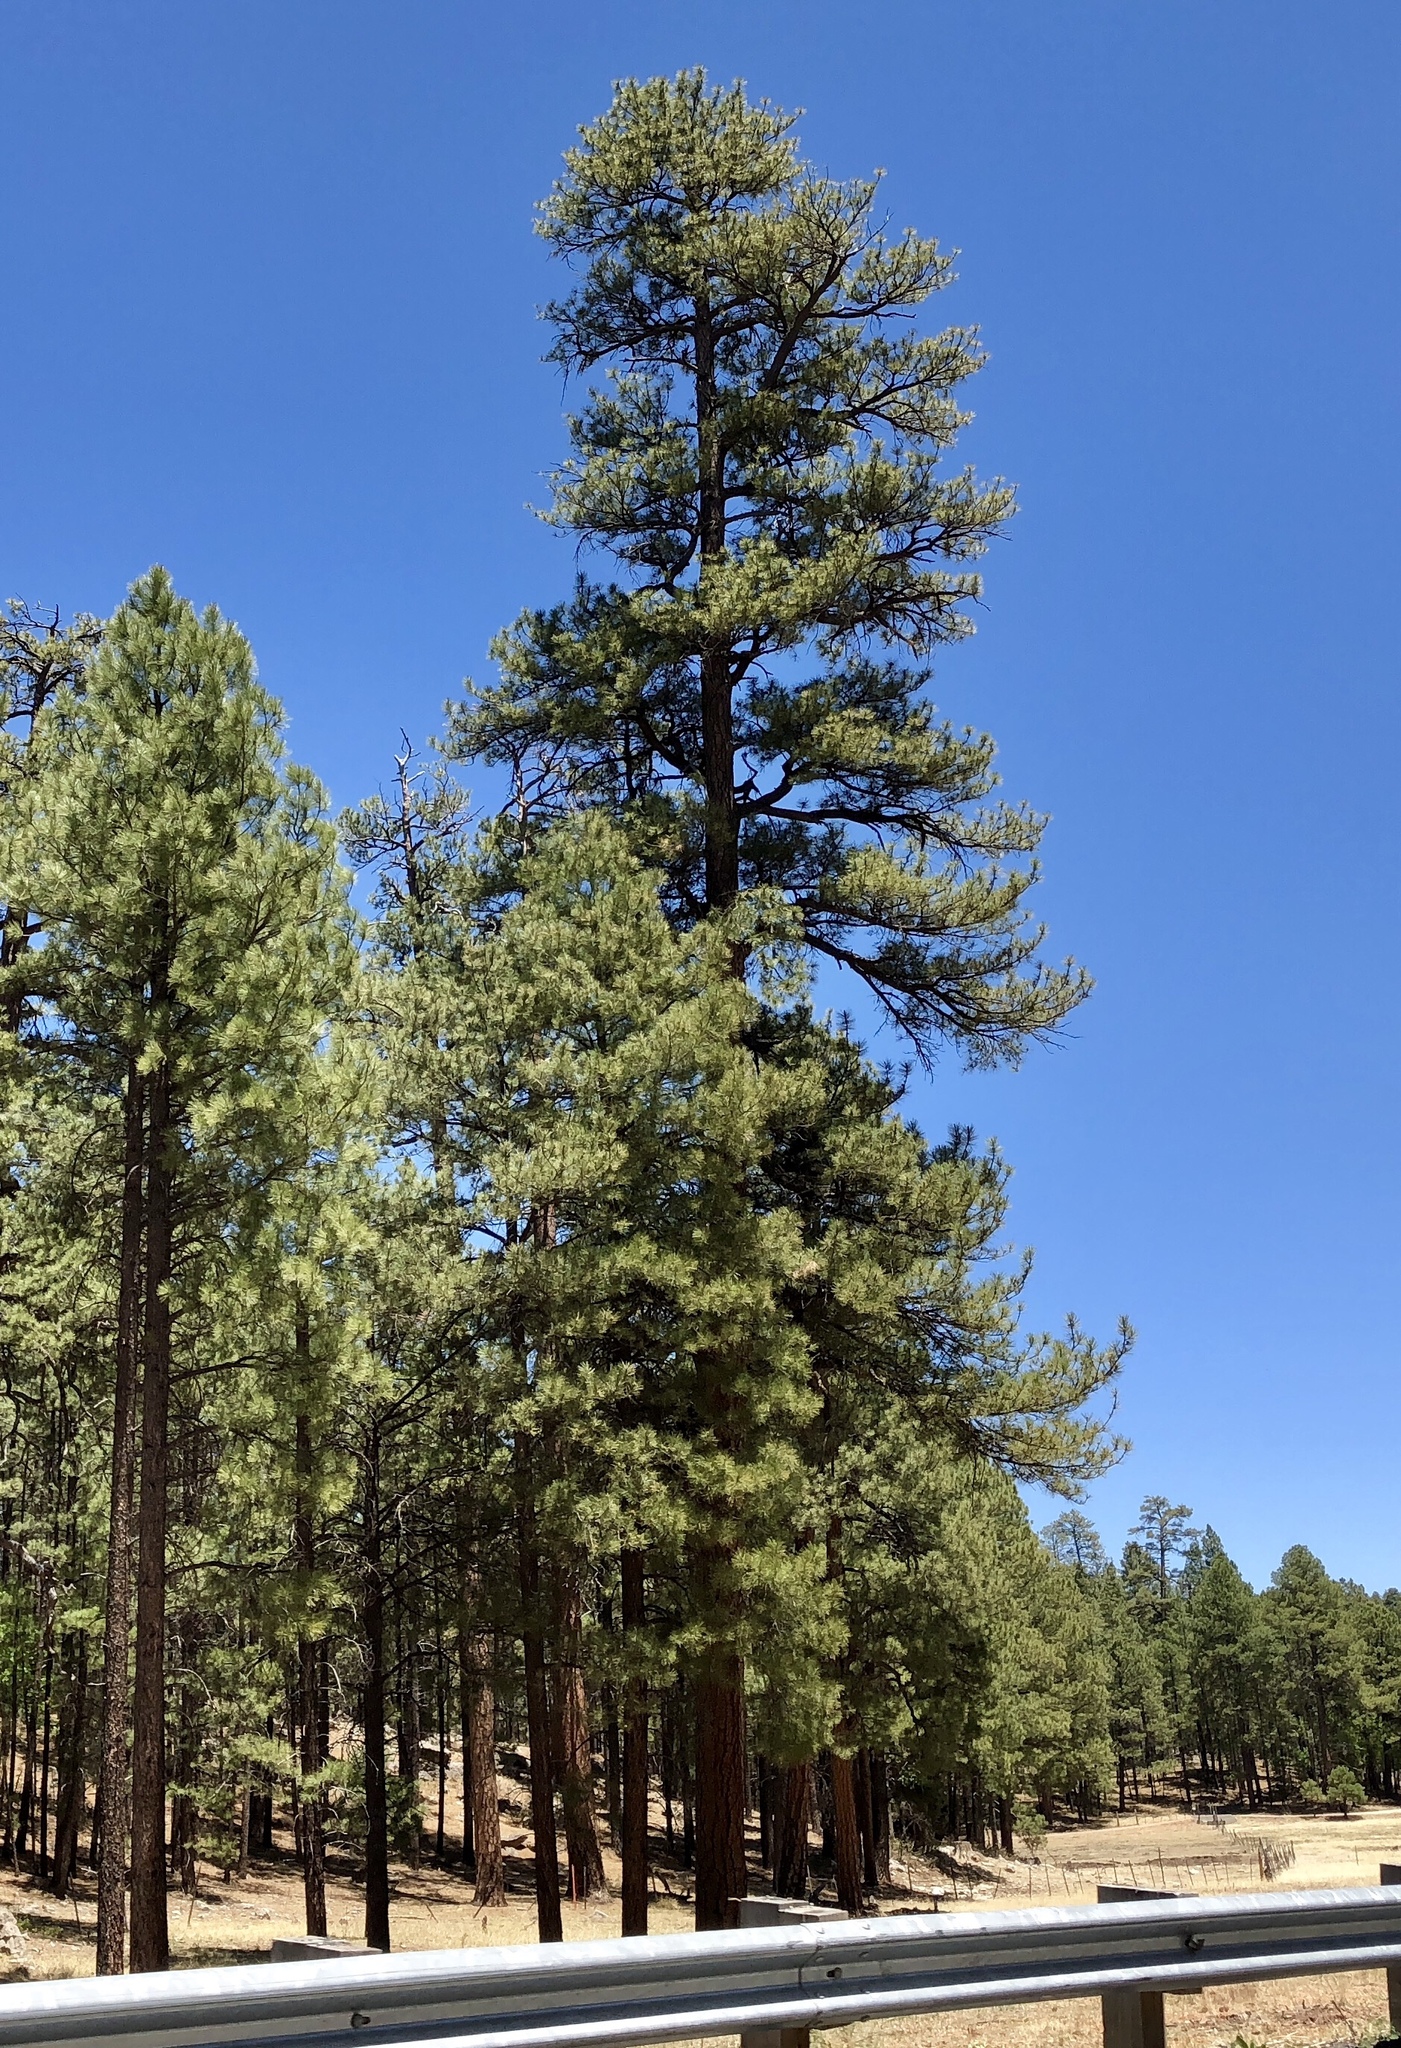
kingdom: Plantae
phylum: Tracheophyta
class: Pinopsida
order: Pinales
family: Pinaceae
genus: Pinus
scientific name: Pinus ponderosa
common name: Western yellow-pine
